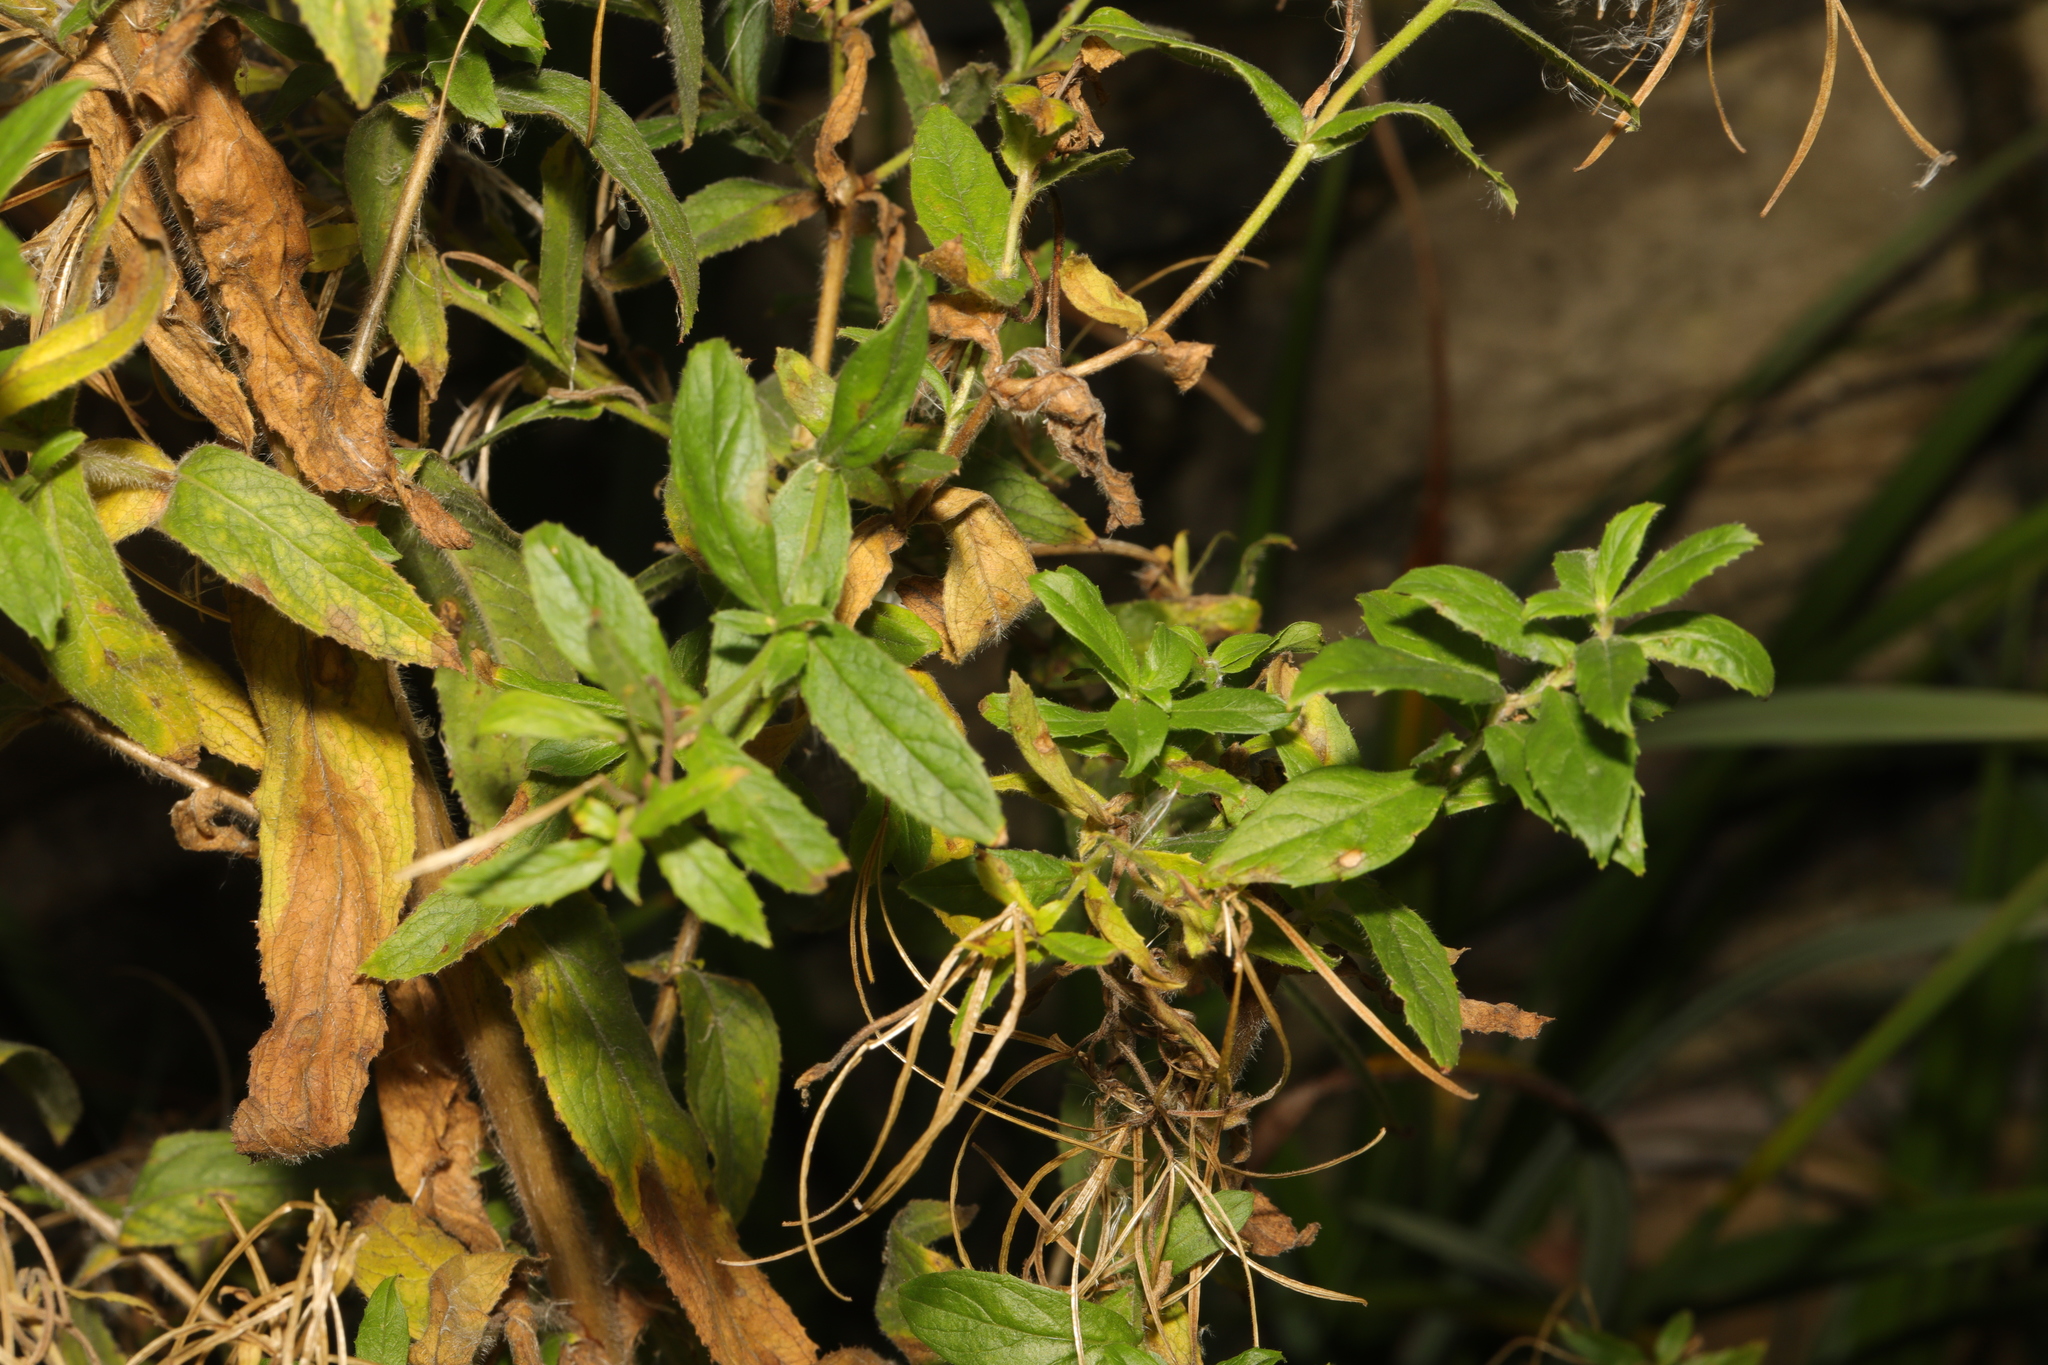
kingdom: Plantae
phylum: Tracheophyta
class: Magnoliopsida
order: Myrtales
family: Onagraceae
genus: Epilobium
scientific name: Epilobium hirsutum
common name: Great willowherb
